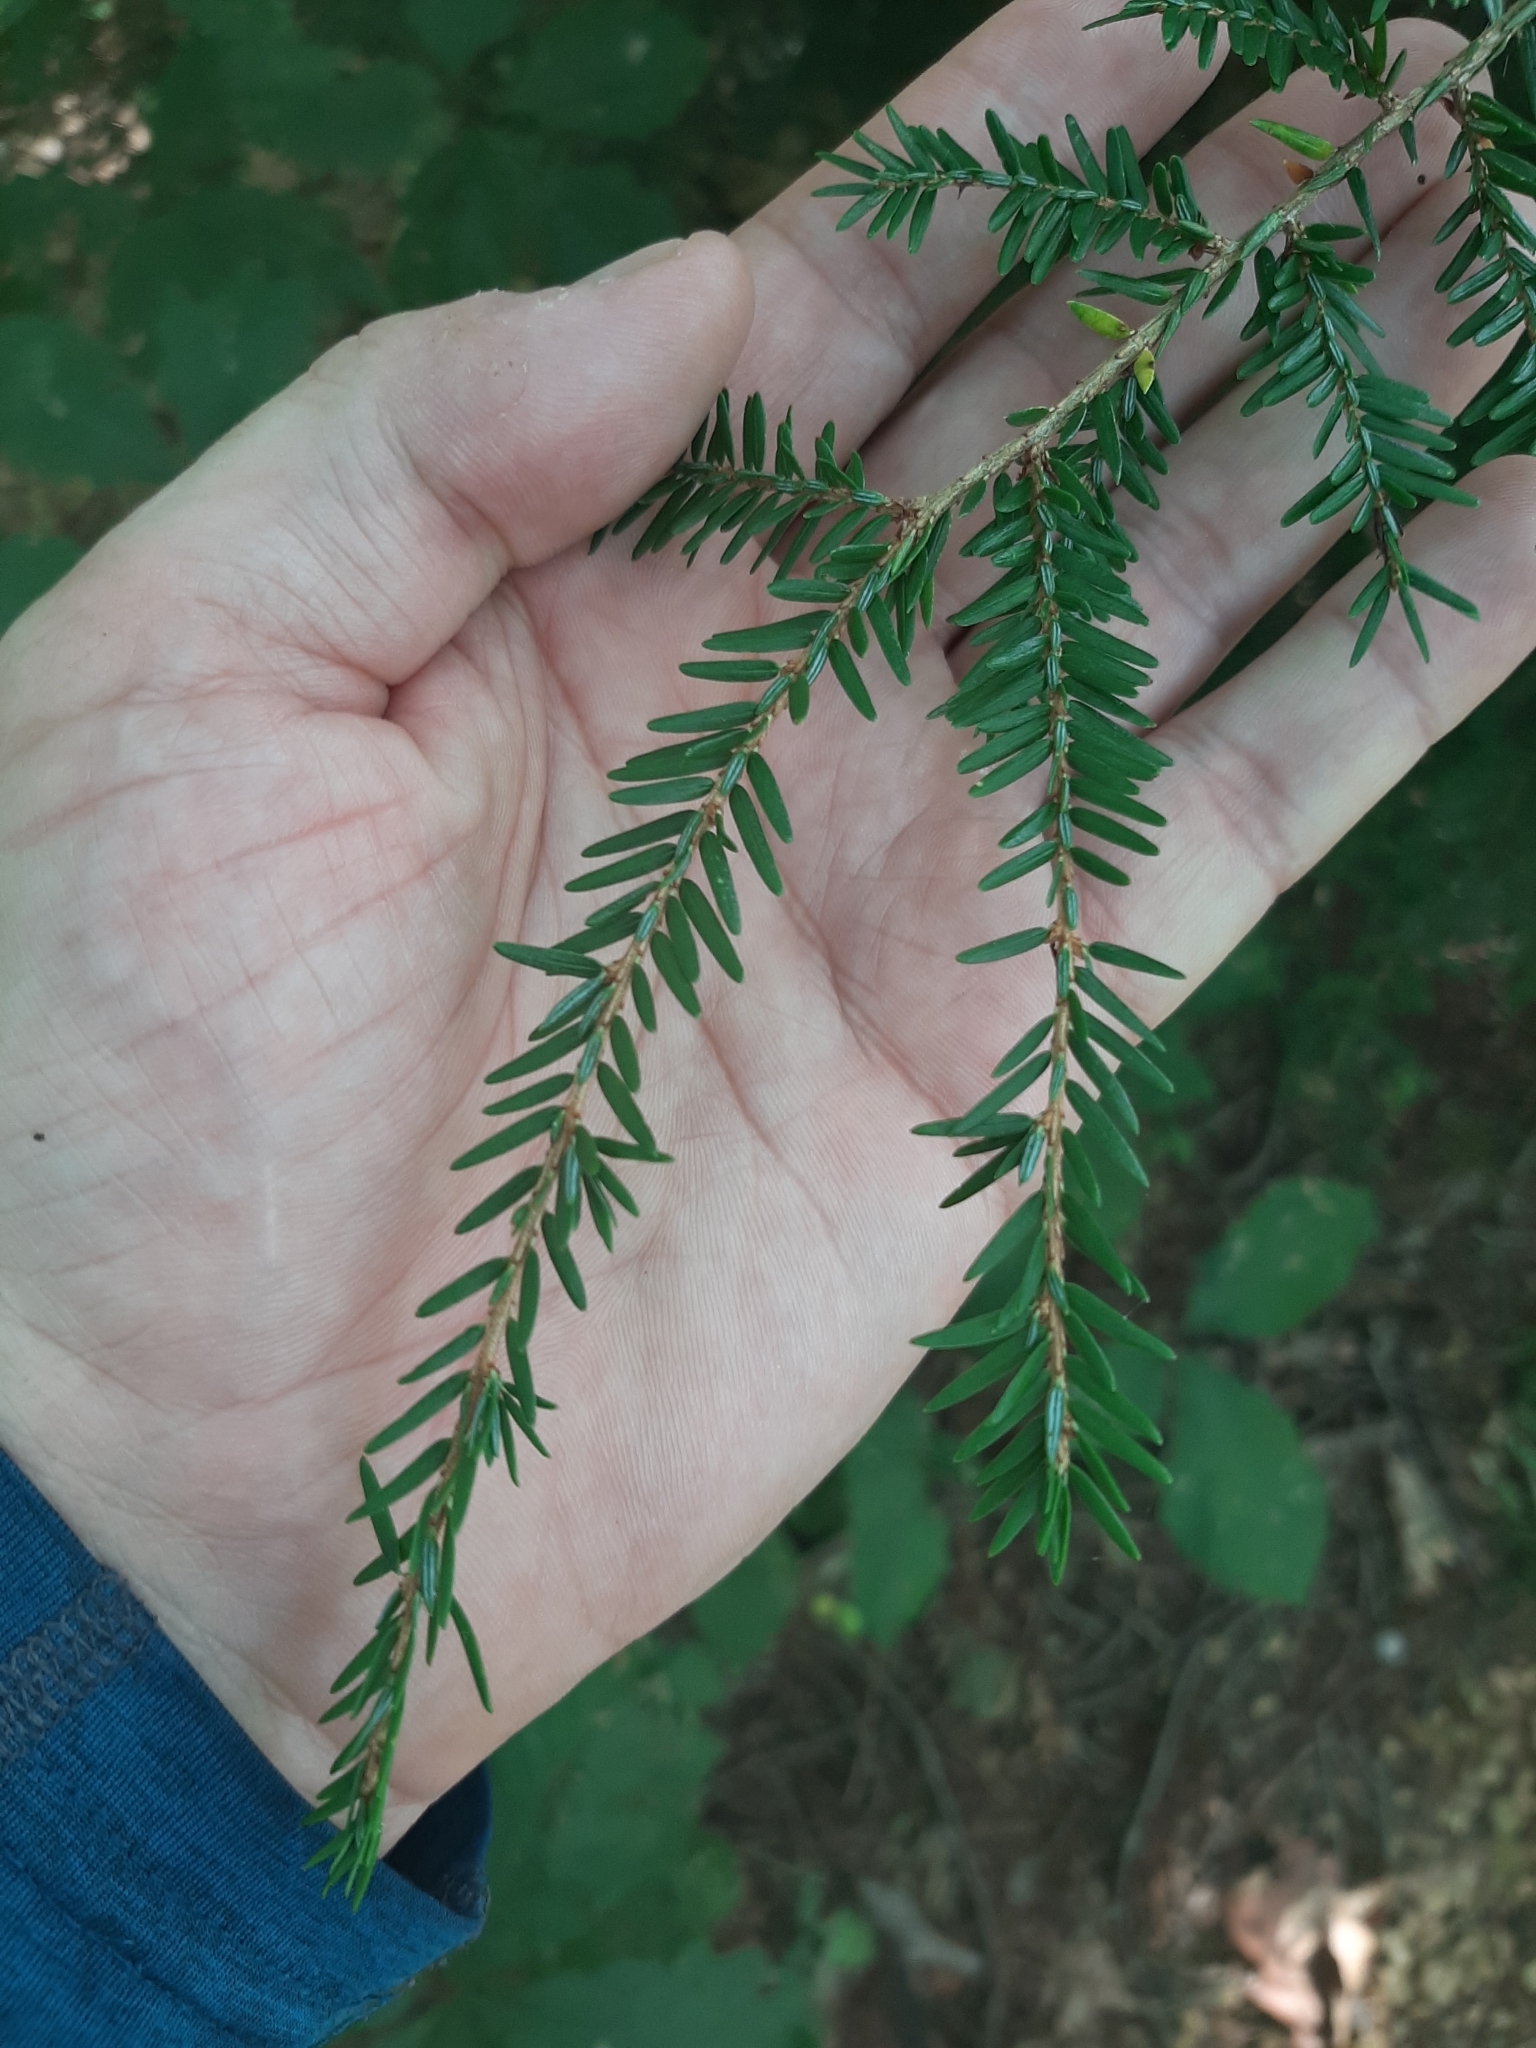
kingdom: Plantae
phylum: Tracheophyta
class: Pinopsida
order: Pinales
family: Pinaceae
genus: Tsuga
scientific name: Tsuga canadensis
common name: Eastern hemlock
